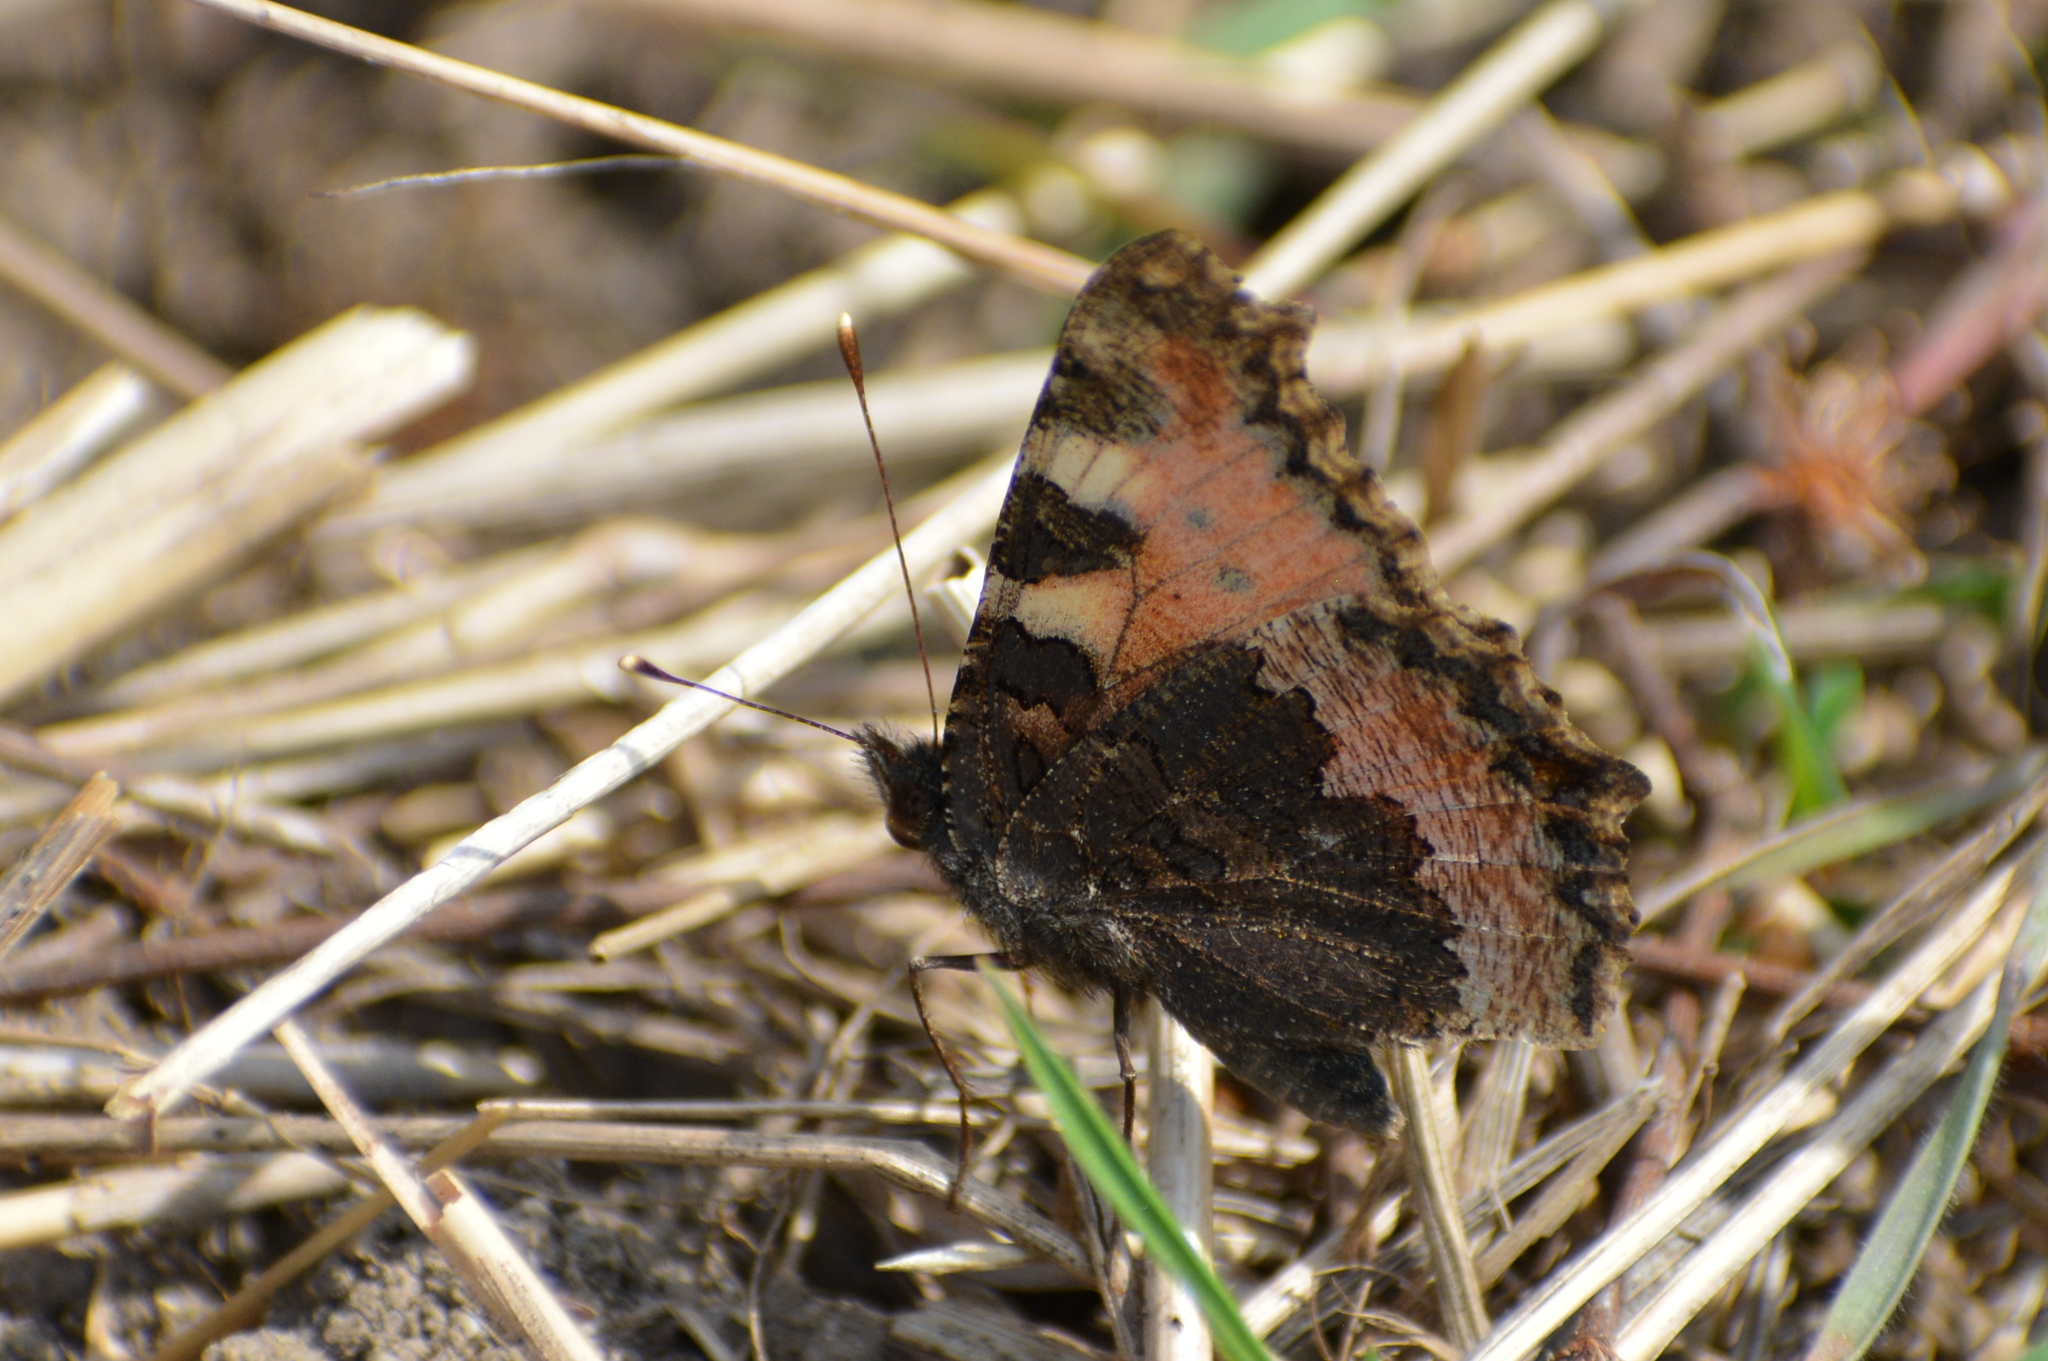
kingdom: Animalia
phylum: Arthropoda
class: Insecta
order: Lepidoptera
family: Nymphalidae
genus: Aglais
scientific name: Aglais urticae
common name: Small tortoiseshell
